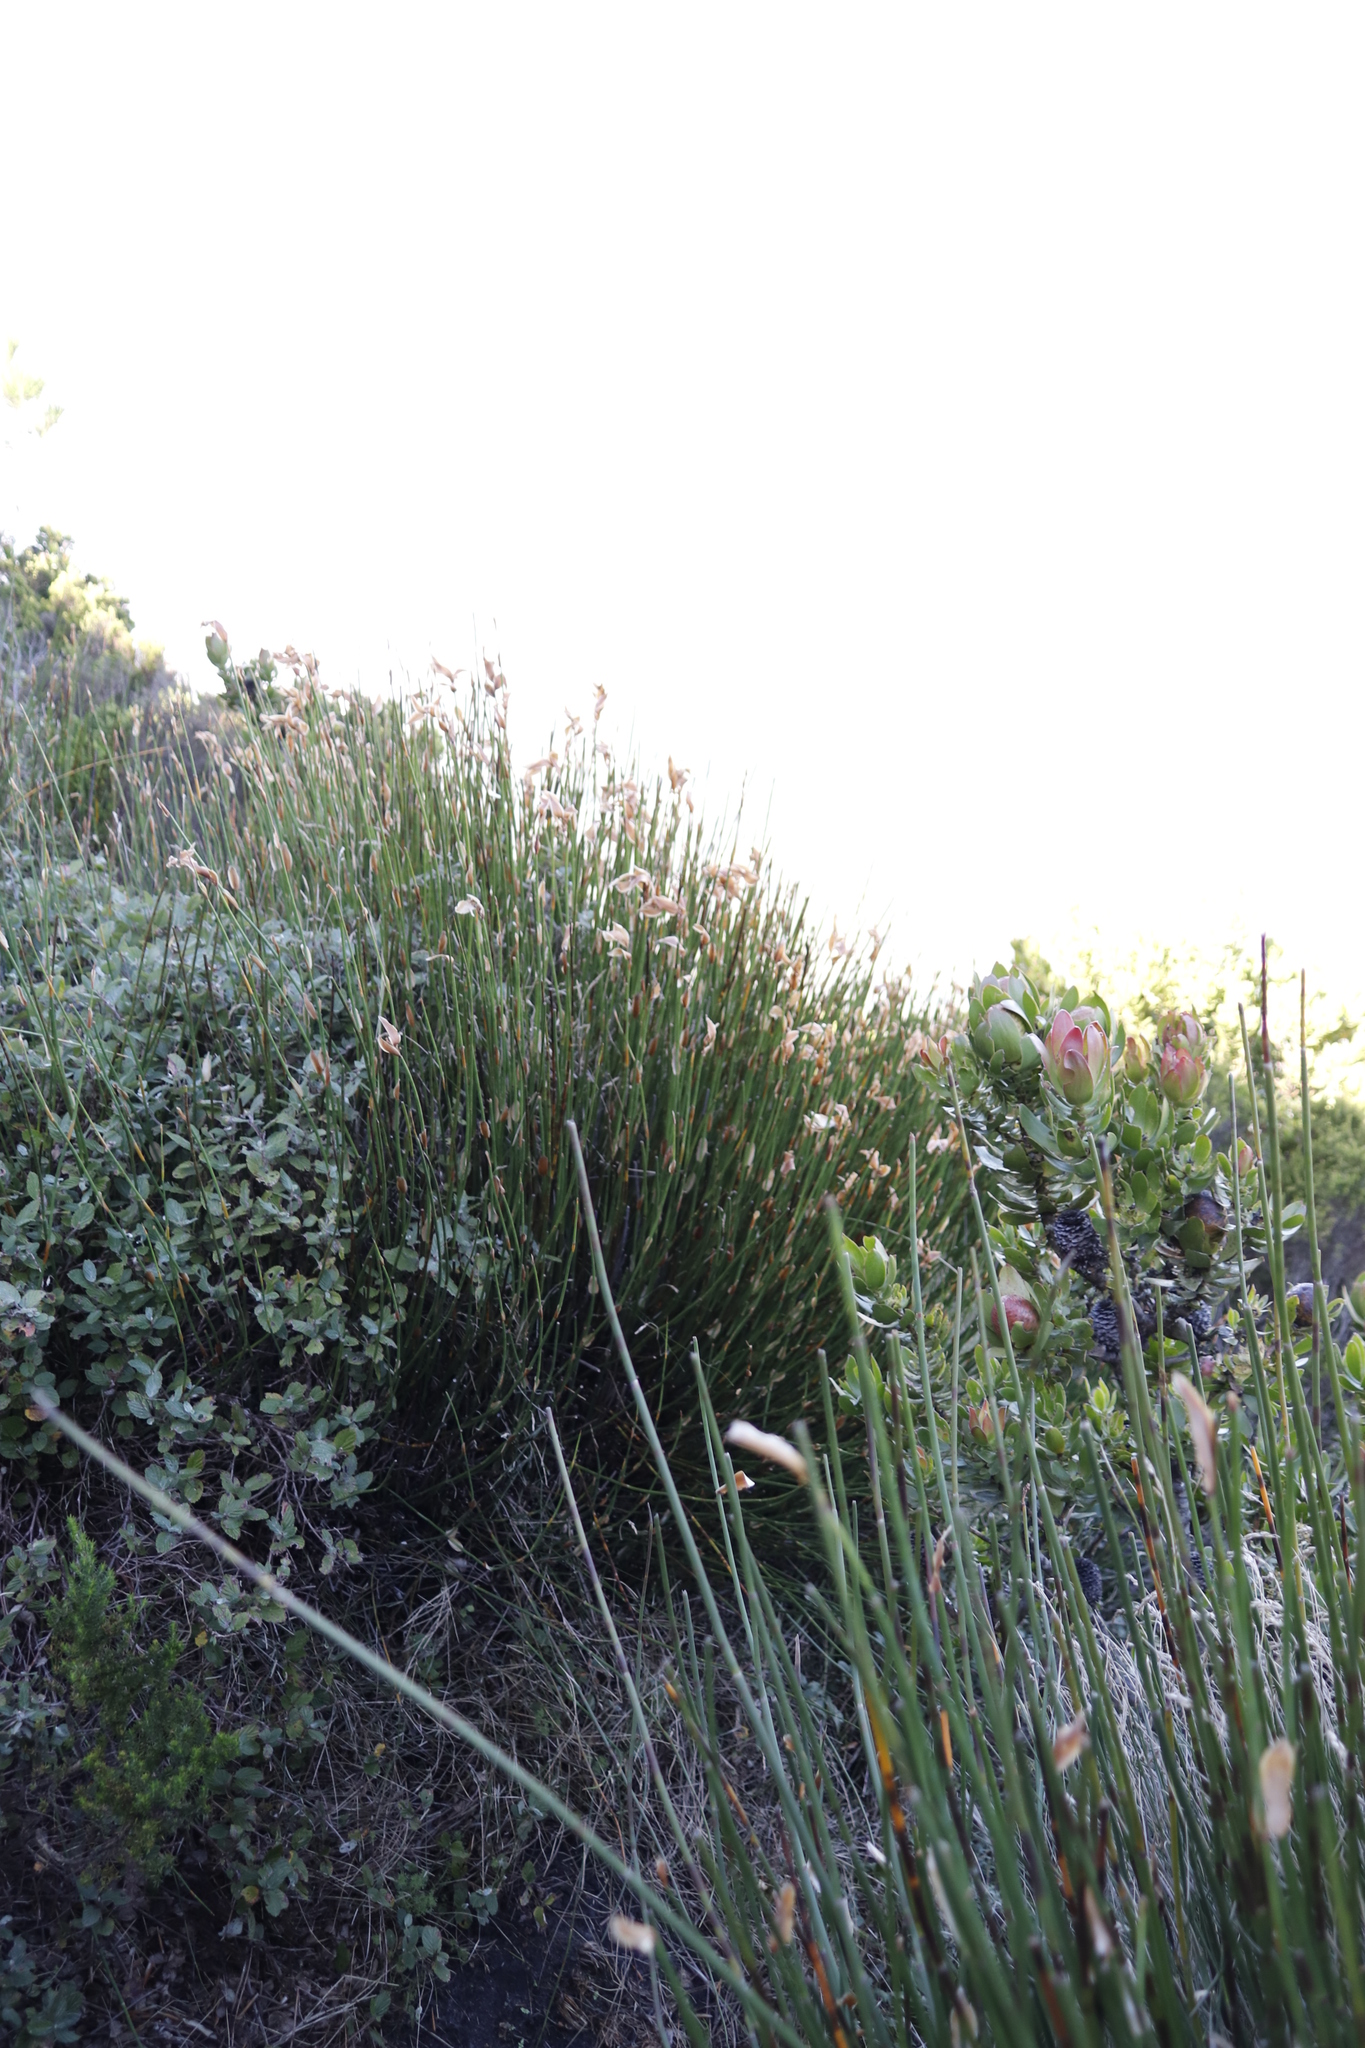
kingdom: Plantae
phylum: Tracheophyta
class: Liliopsida
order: Poales
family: Restionaceae
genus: Elegia
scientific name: Elegia mucronata
